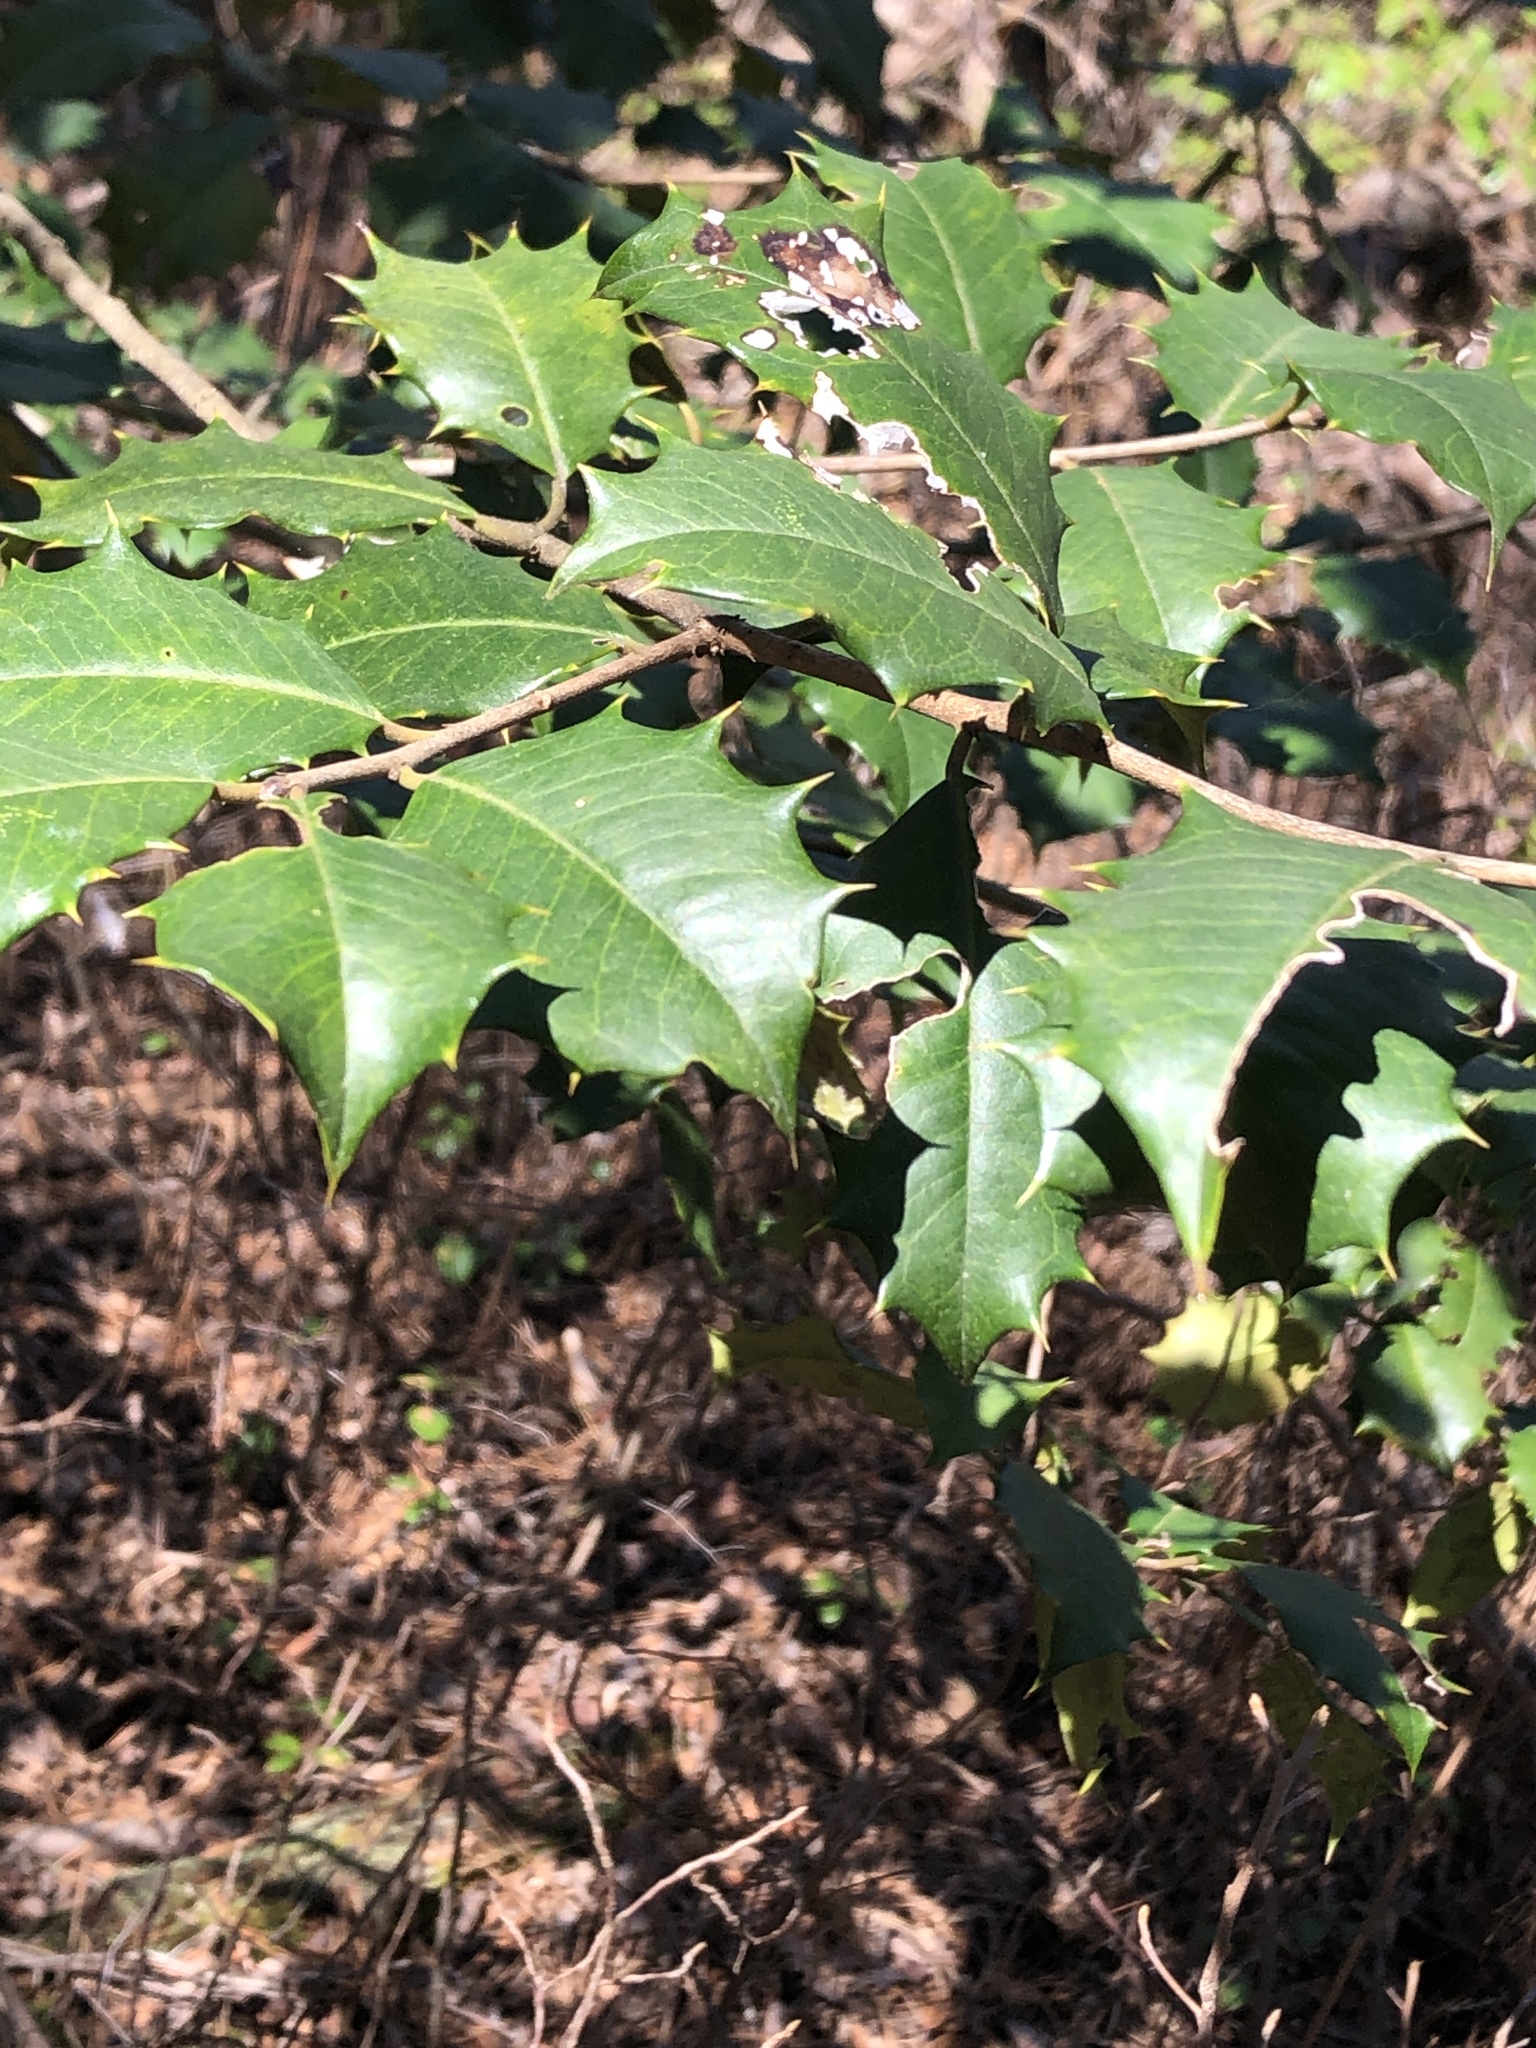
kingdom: Plantae
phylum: Tracheophyta
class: Magnoliopsida
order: Aquifoliales
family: Aquifoliaceae
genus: Ilex
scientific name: Ilex opaca
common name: American holly
